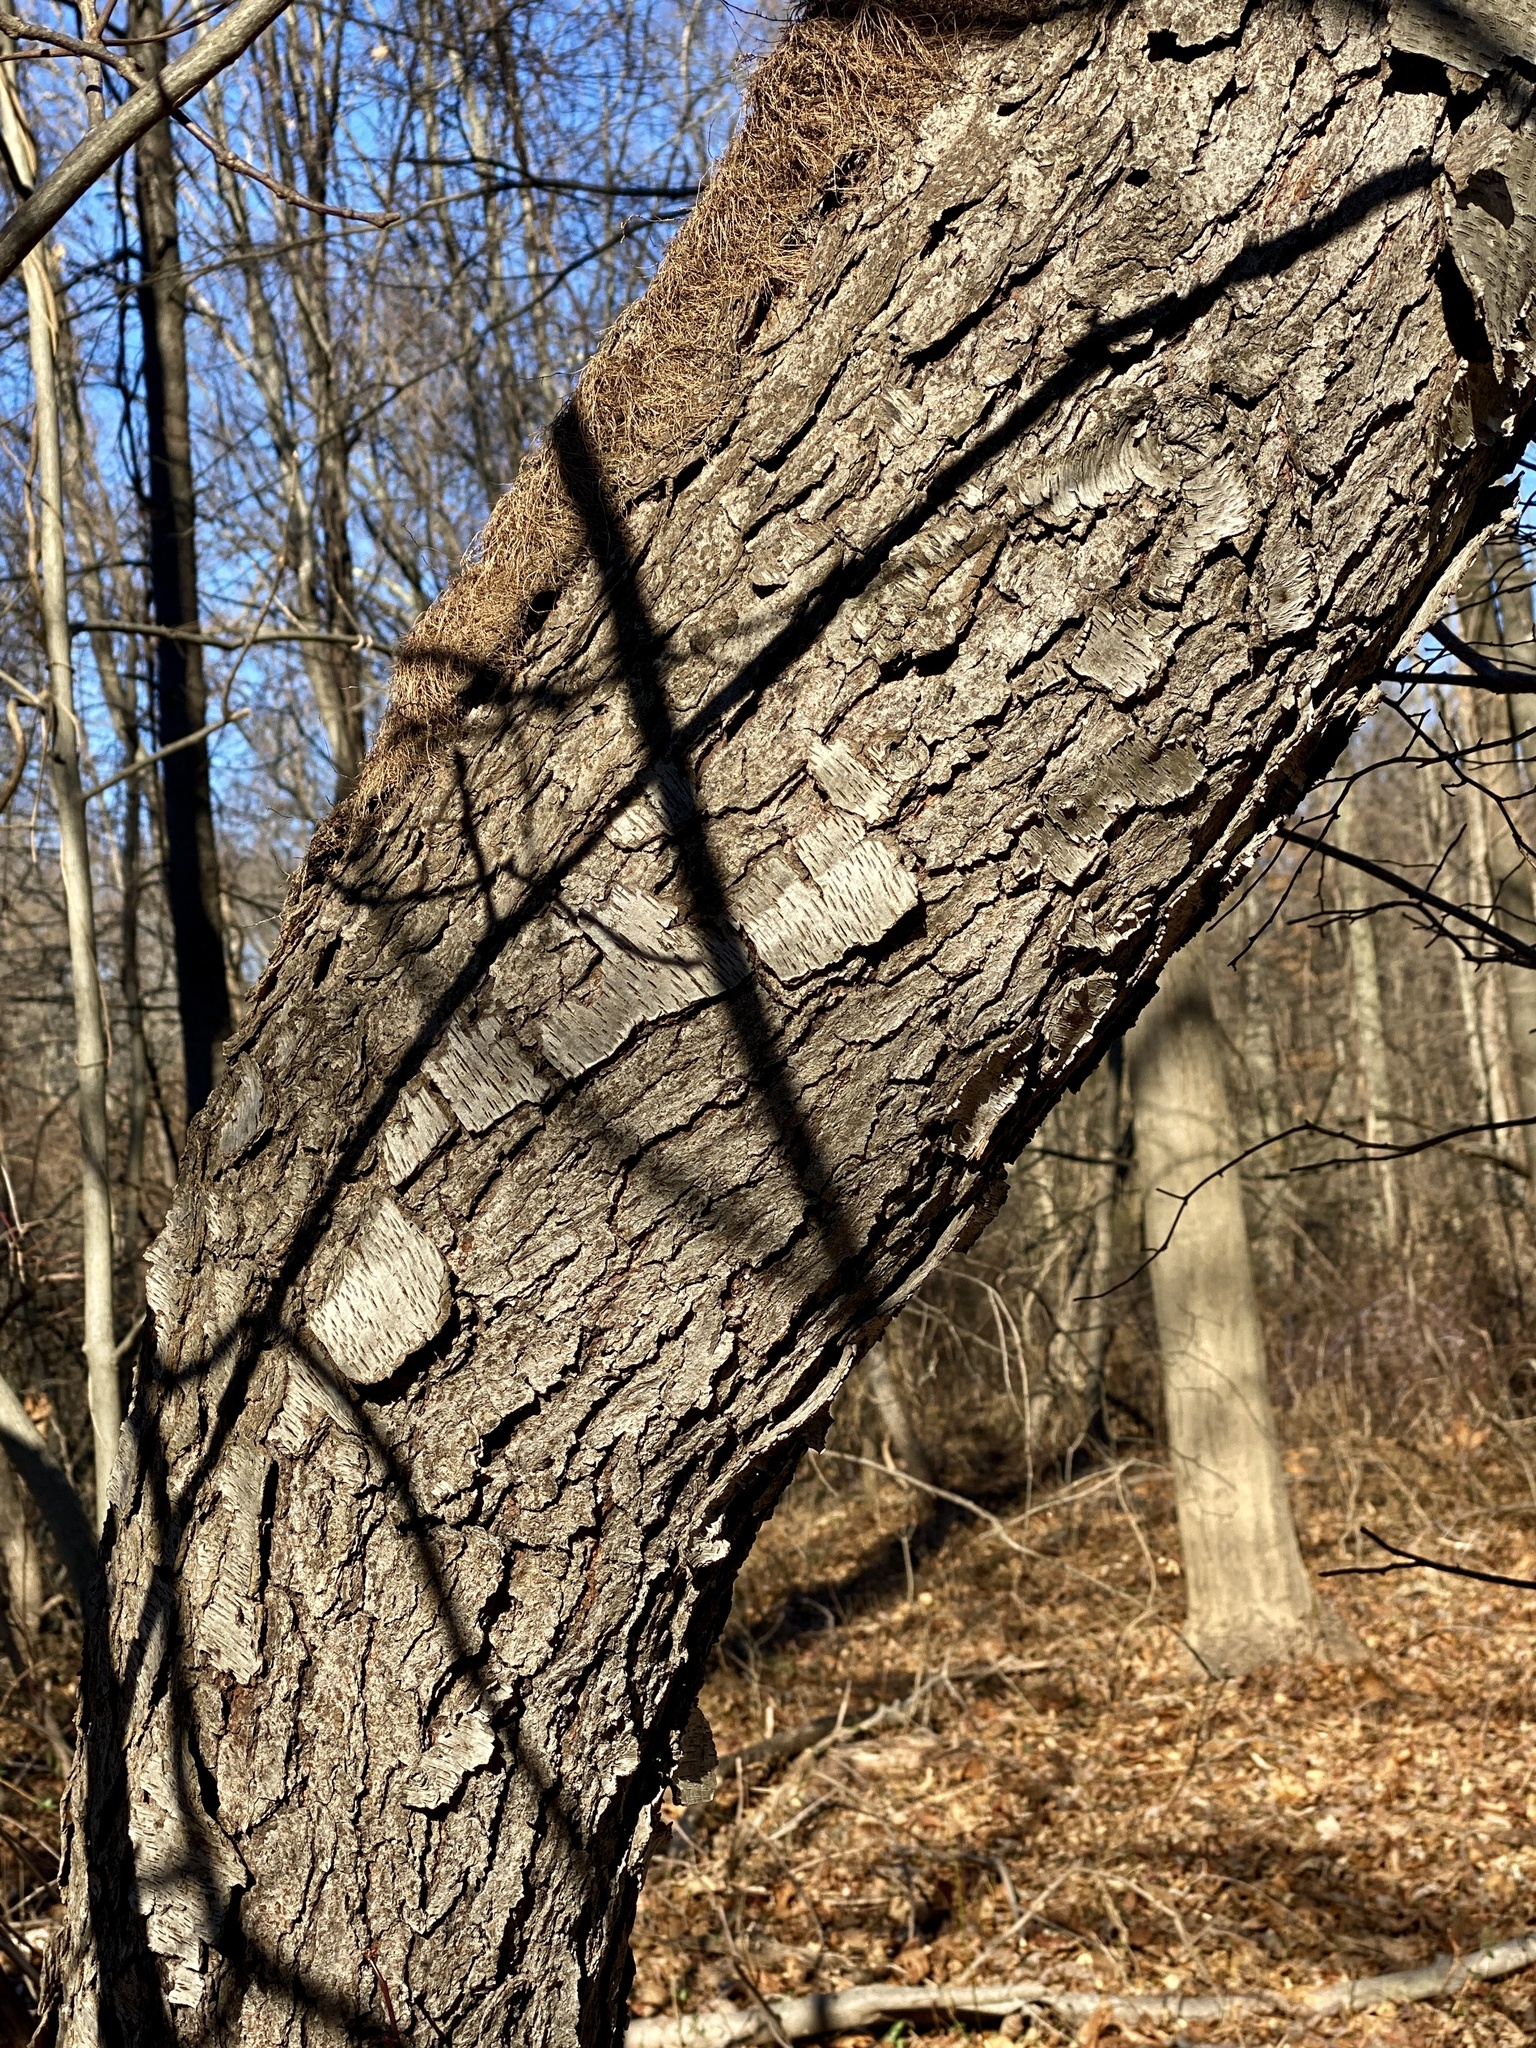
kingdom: Plantae
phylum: Tracheophyta
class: Magnoliopsida
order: Rosales
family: Rosaceae
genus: Prunus
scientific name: Prunus serotina
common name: Black cherry
